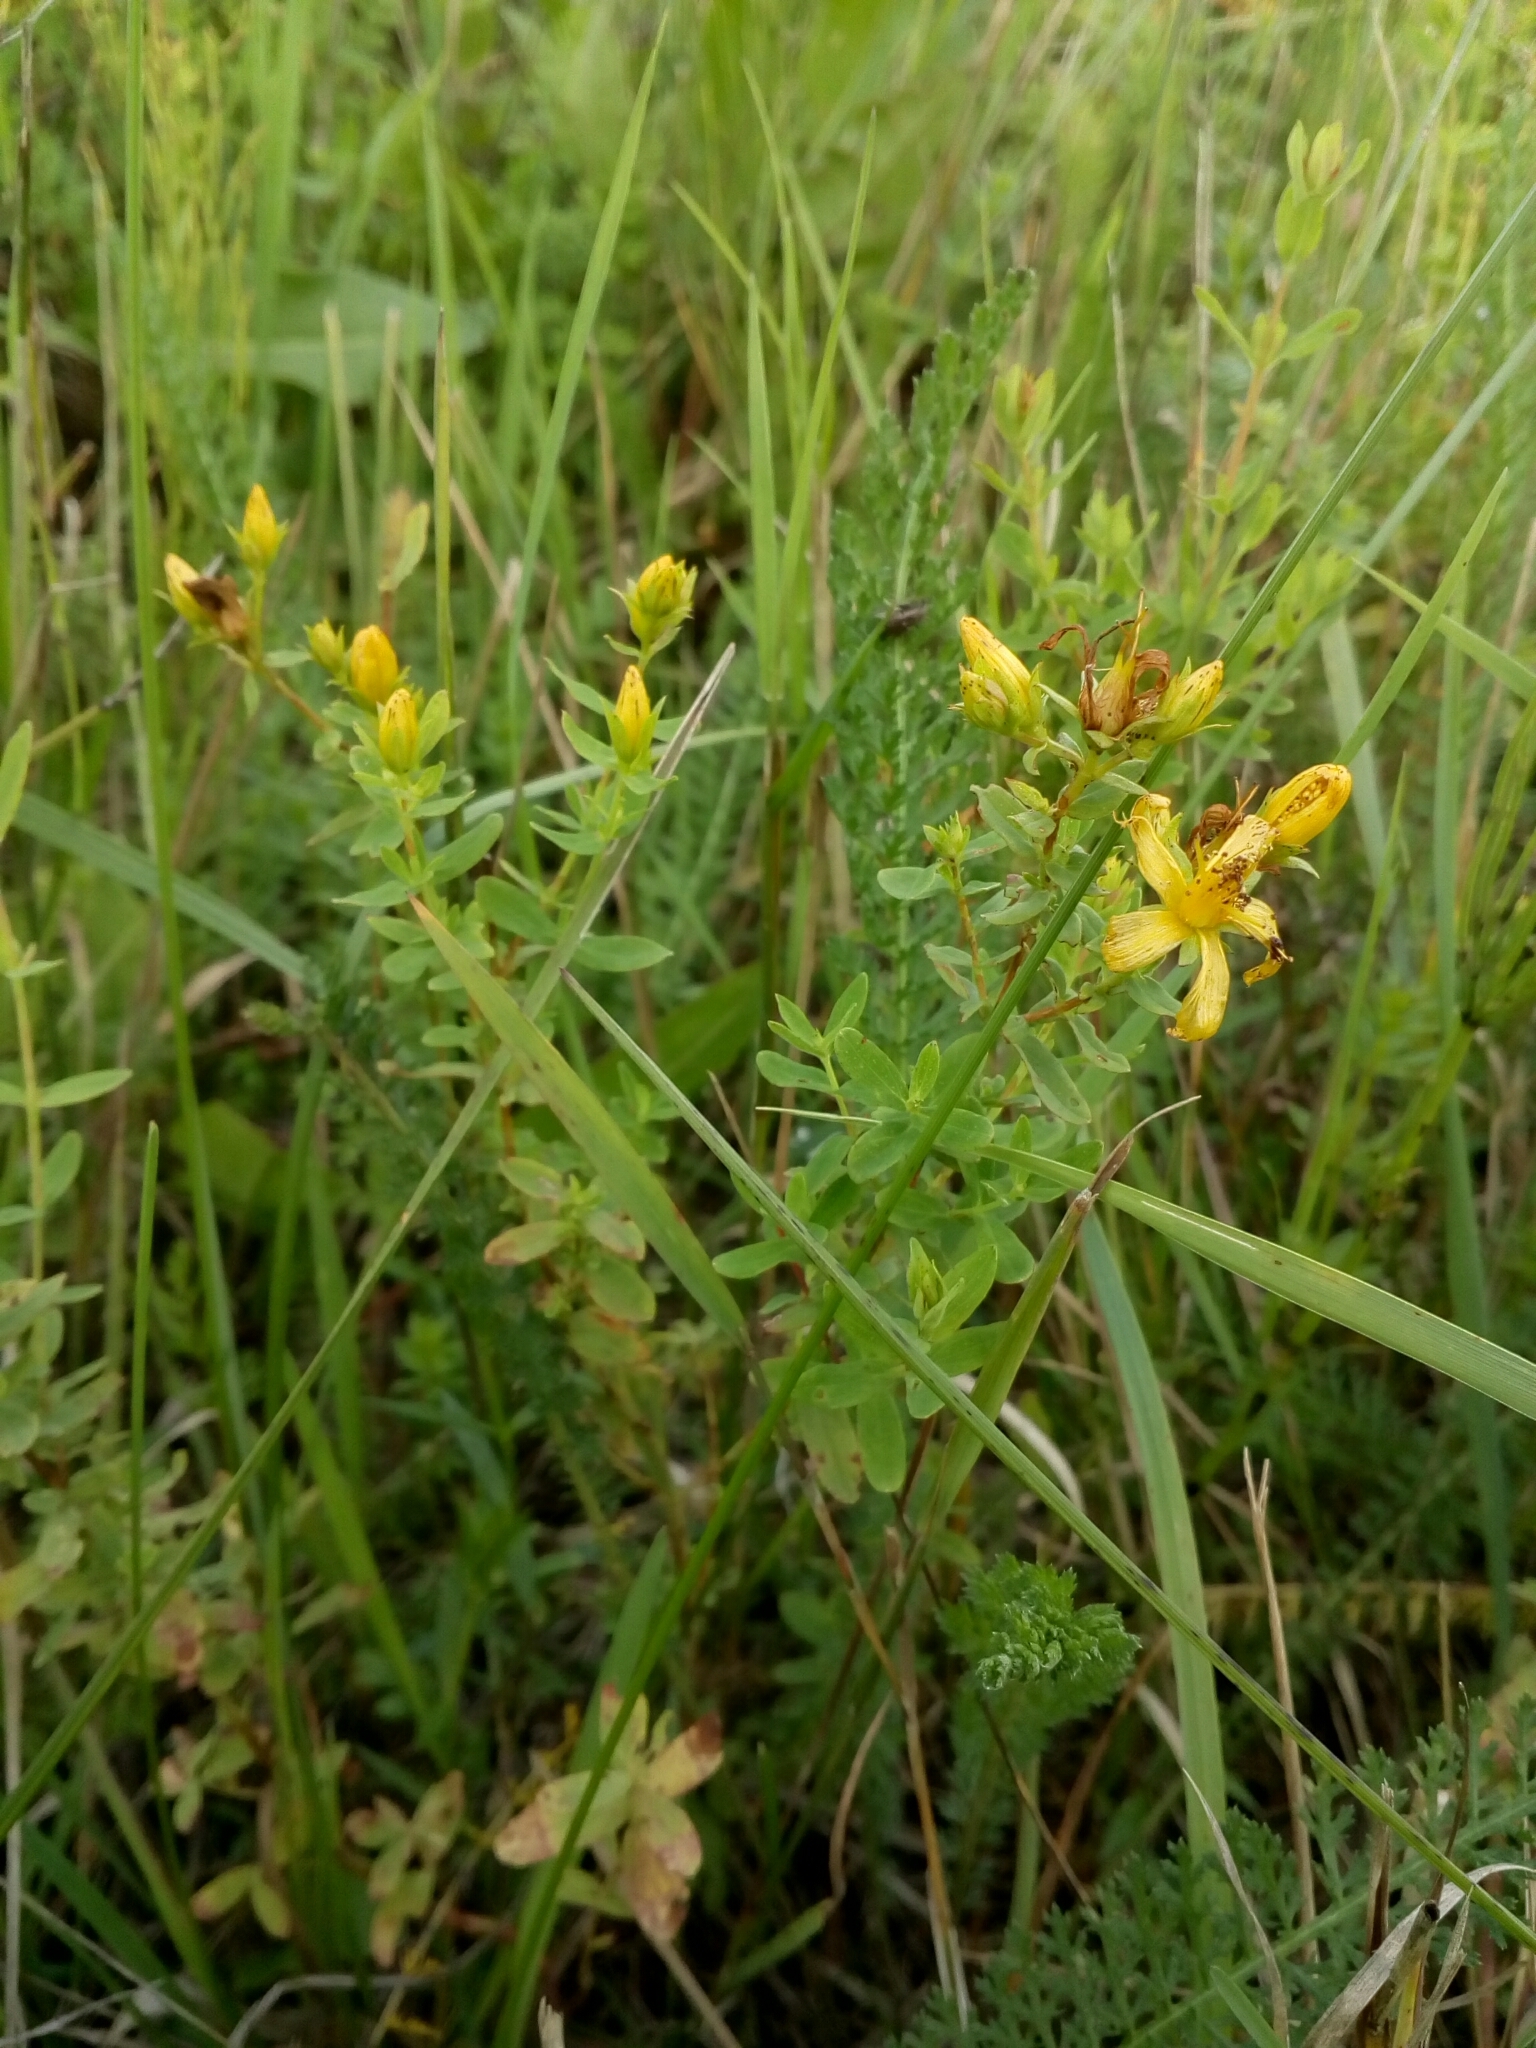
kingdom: Plantae
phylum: Tracheophyta
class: Magnoliopsida
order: Malpighiales
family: Hypericaceae
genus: Hypericum
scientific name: Hypericum perforatum
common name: Common st. johnswort
